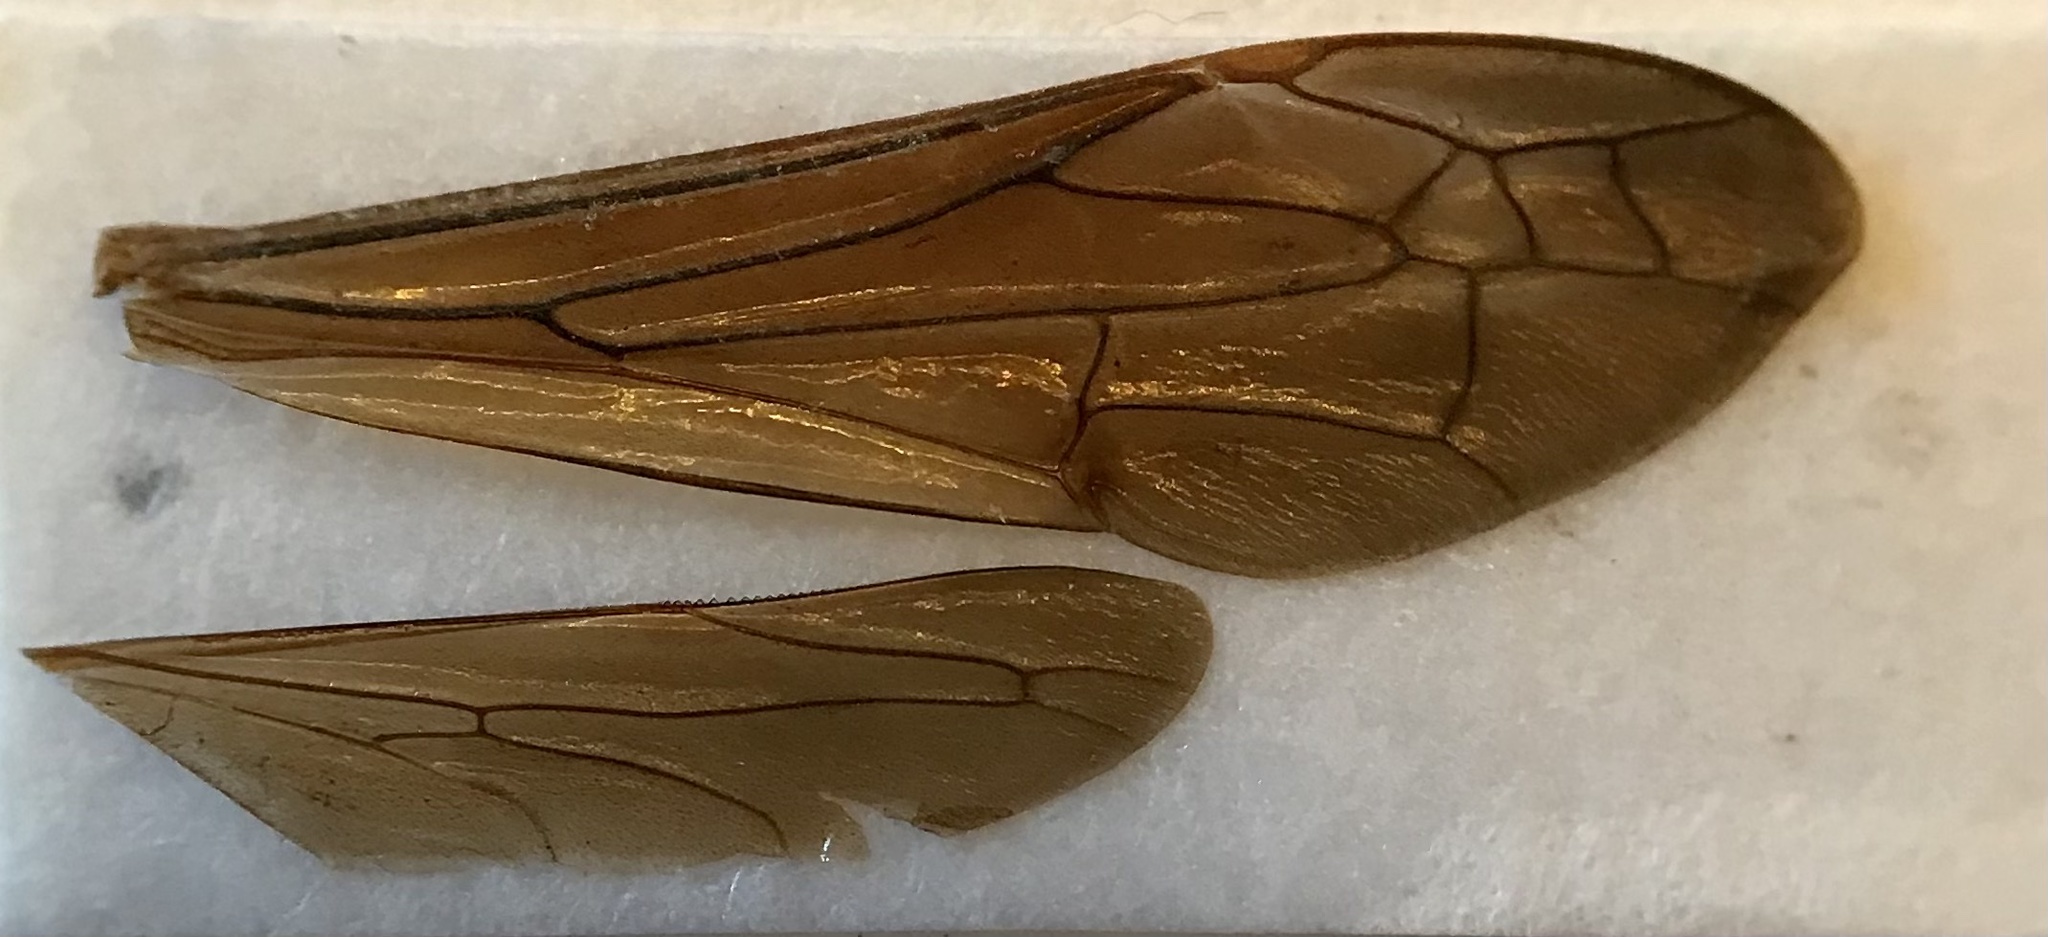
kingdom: Animalia
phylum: Arthropoda
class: Insecta
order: Hymenoptera
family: Eumenidae
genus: Polistes
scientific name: Polistes fuscatus
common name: Dark paper wasp
